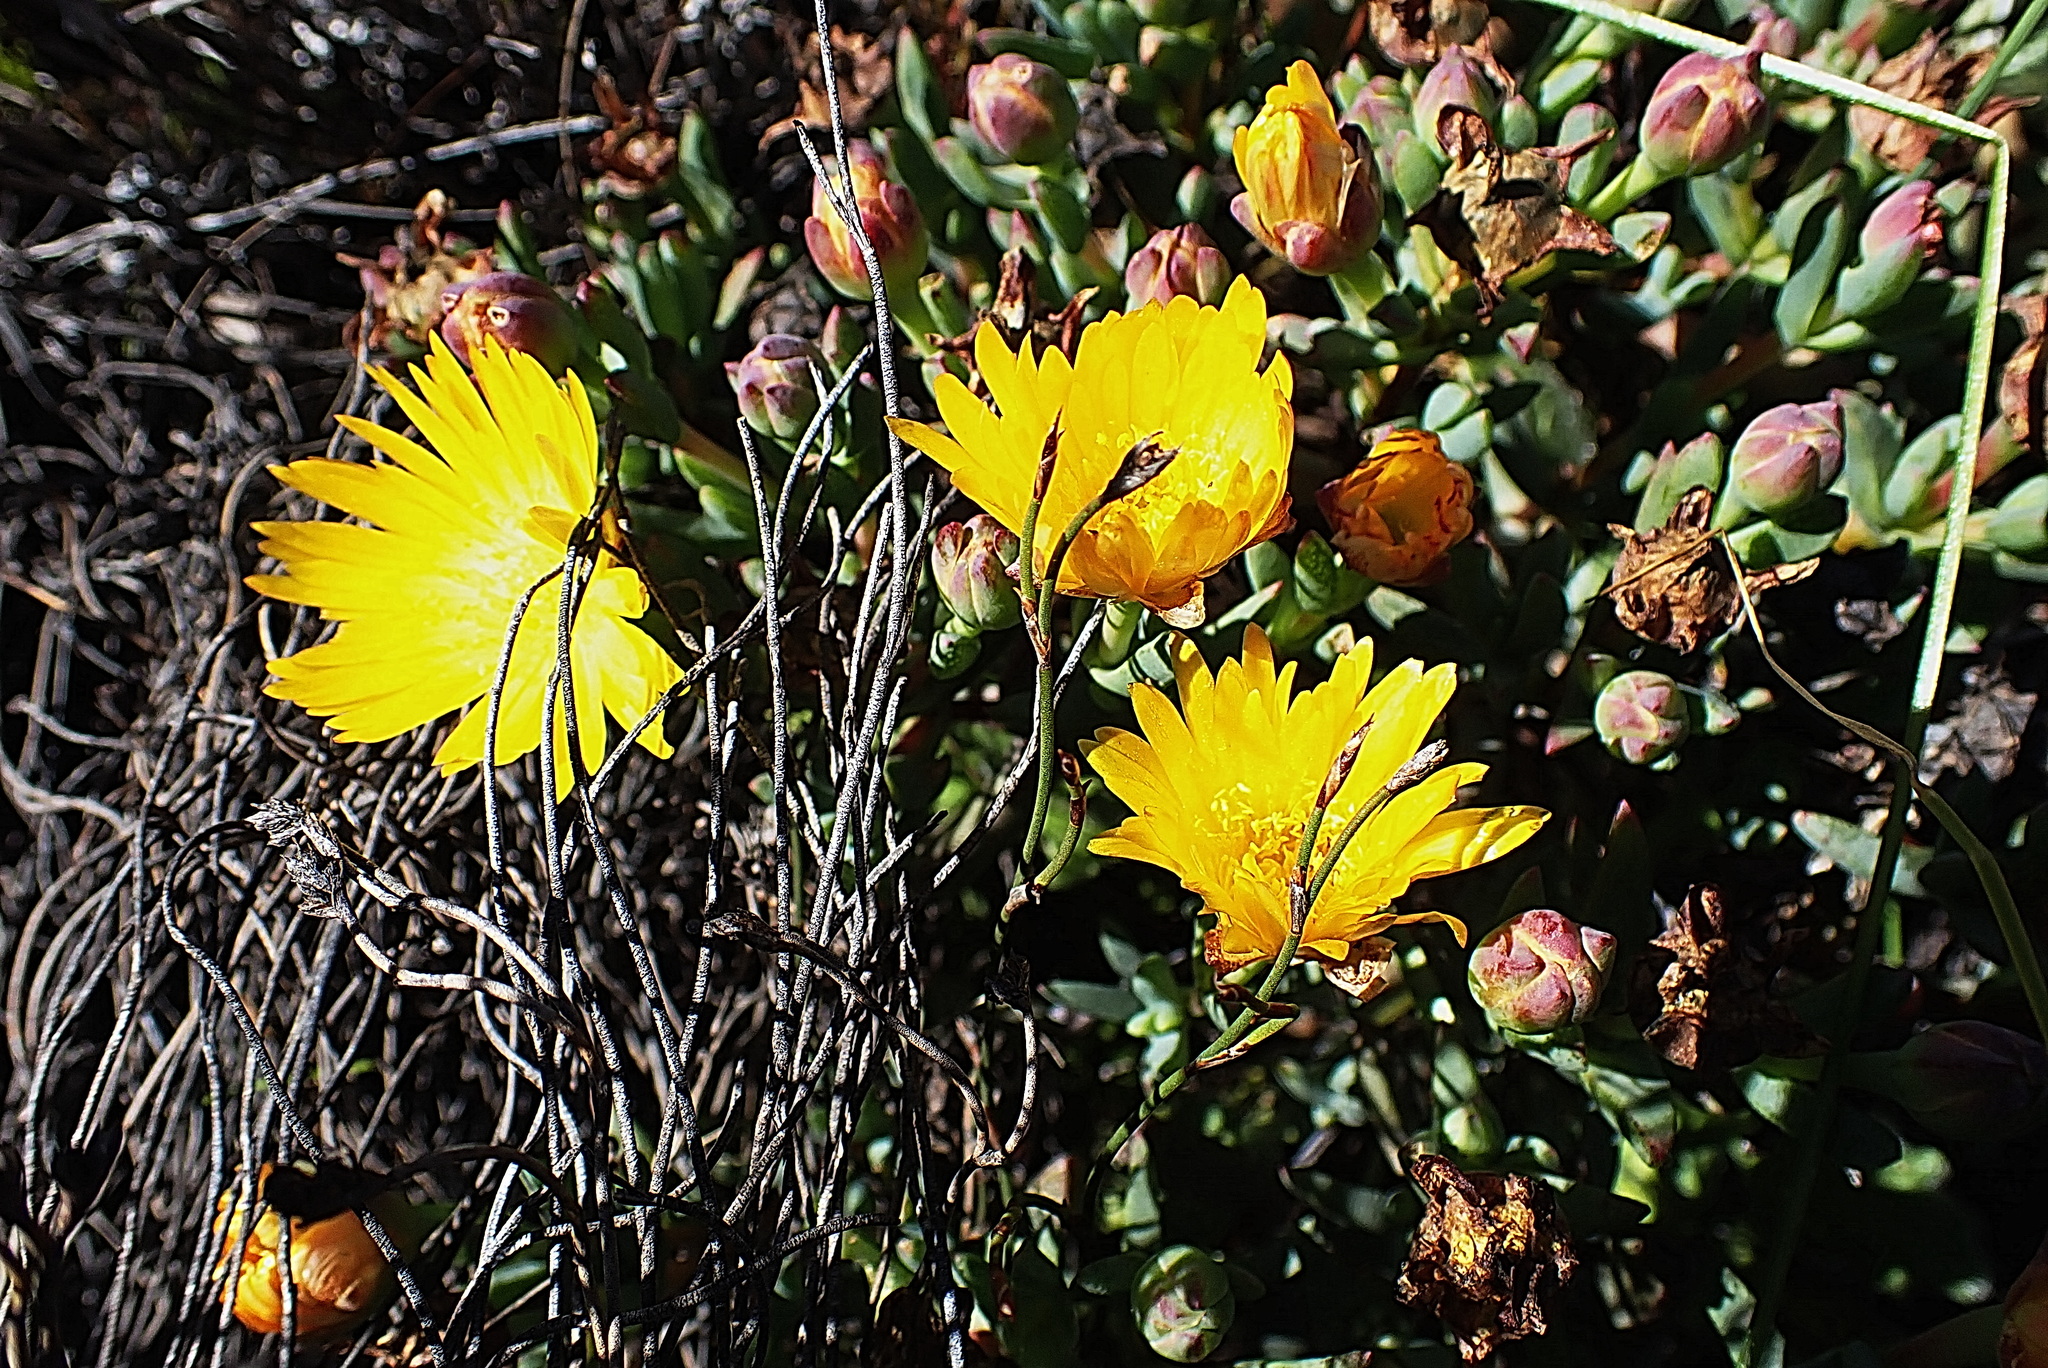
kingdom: Plantae
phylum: Tracheophyta
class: Magnoliopsida
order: Caryophyllales
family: Aizoaceae
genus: Lampranthus
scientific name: Lampranthus glaucus
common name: Noonflower
